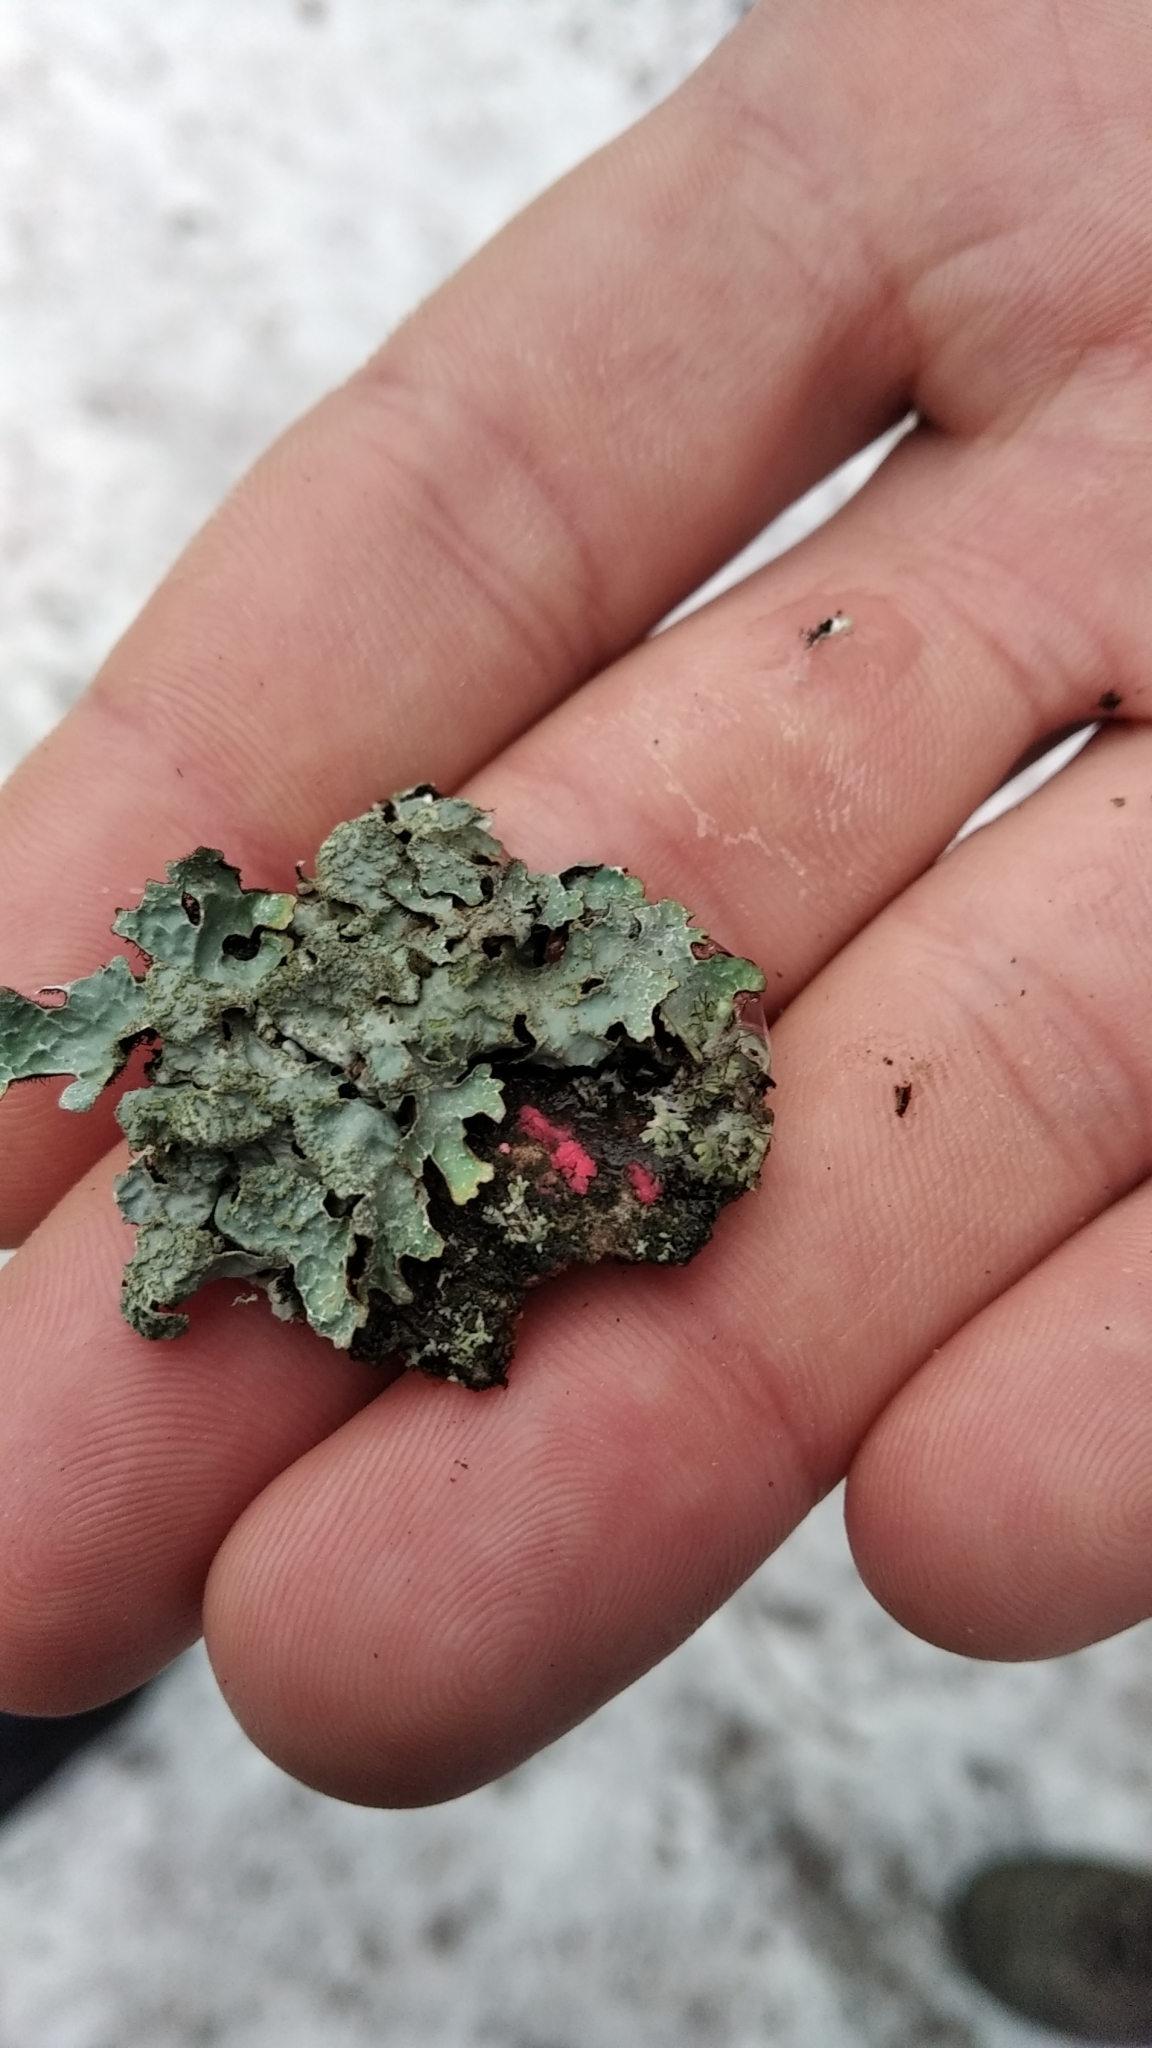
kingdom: Fungi
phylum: Ascomycota
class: Sordariomycetes
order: Hypocreales
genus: Illosporiopsis
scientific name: Illosporiopsis christiansenii
